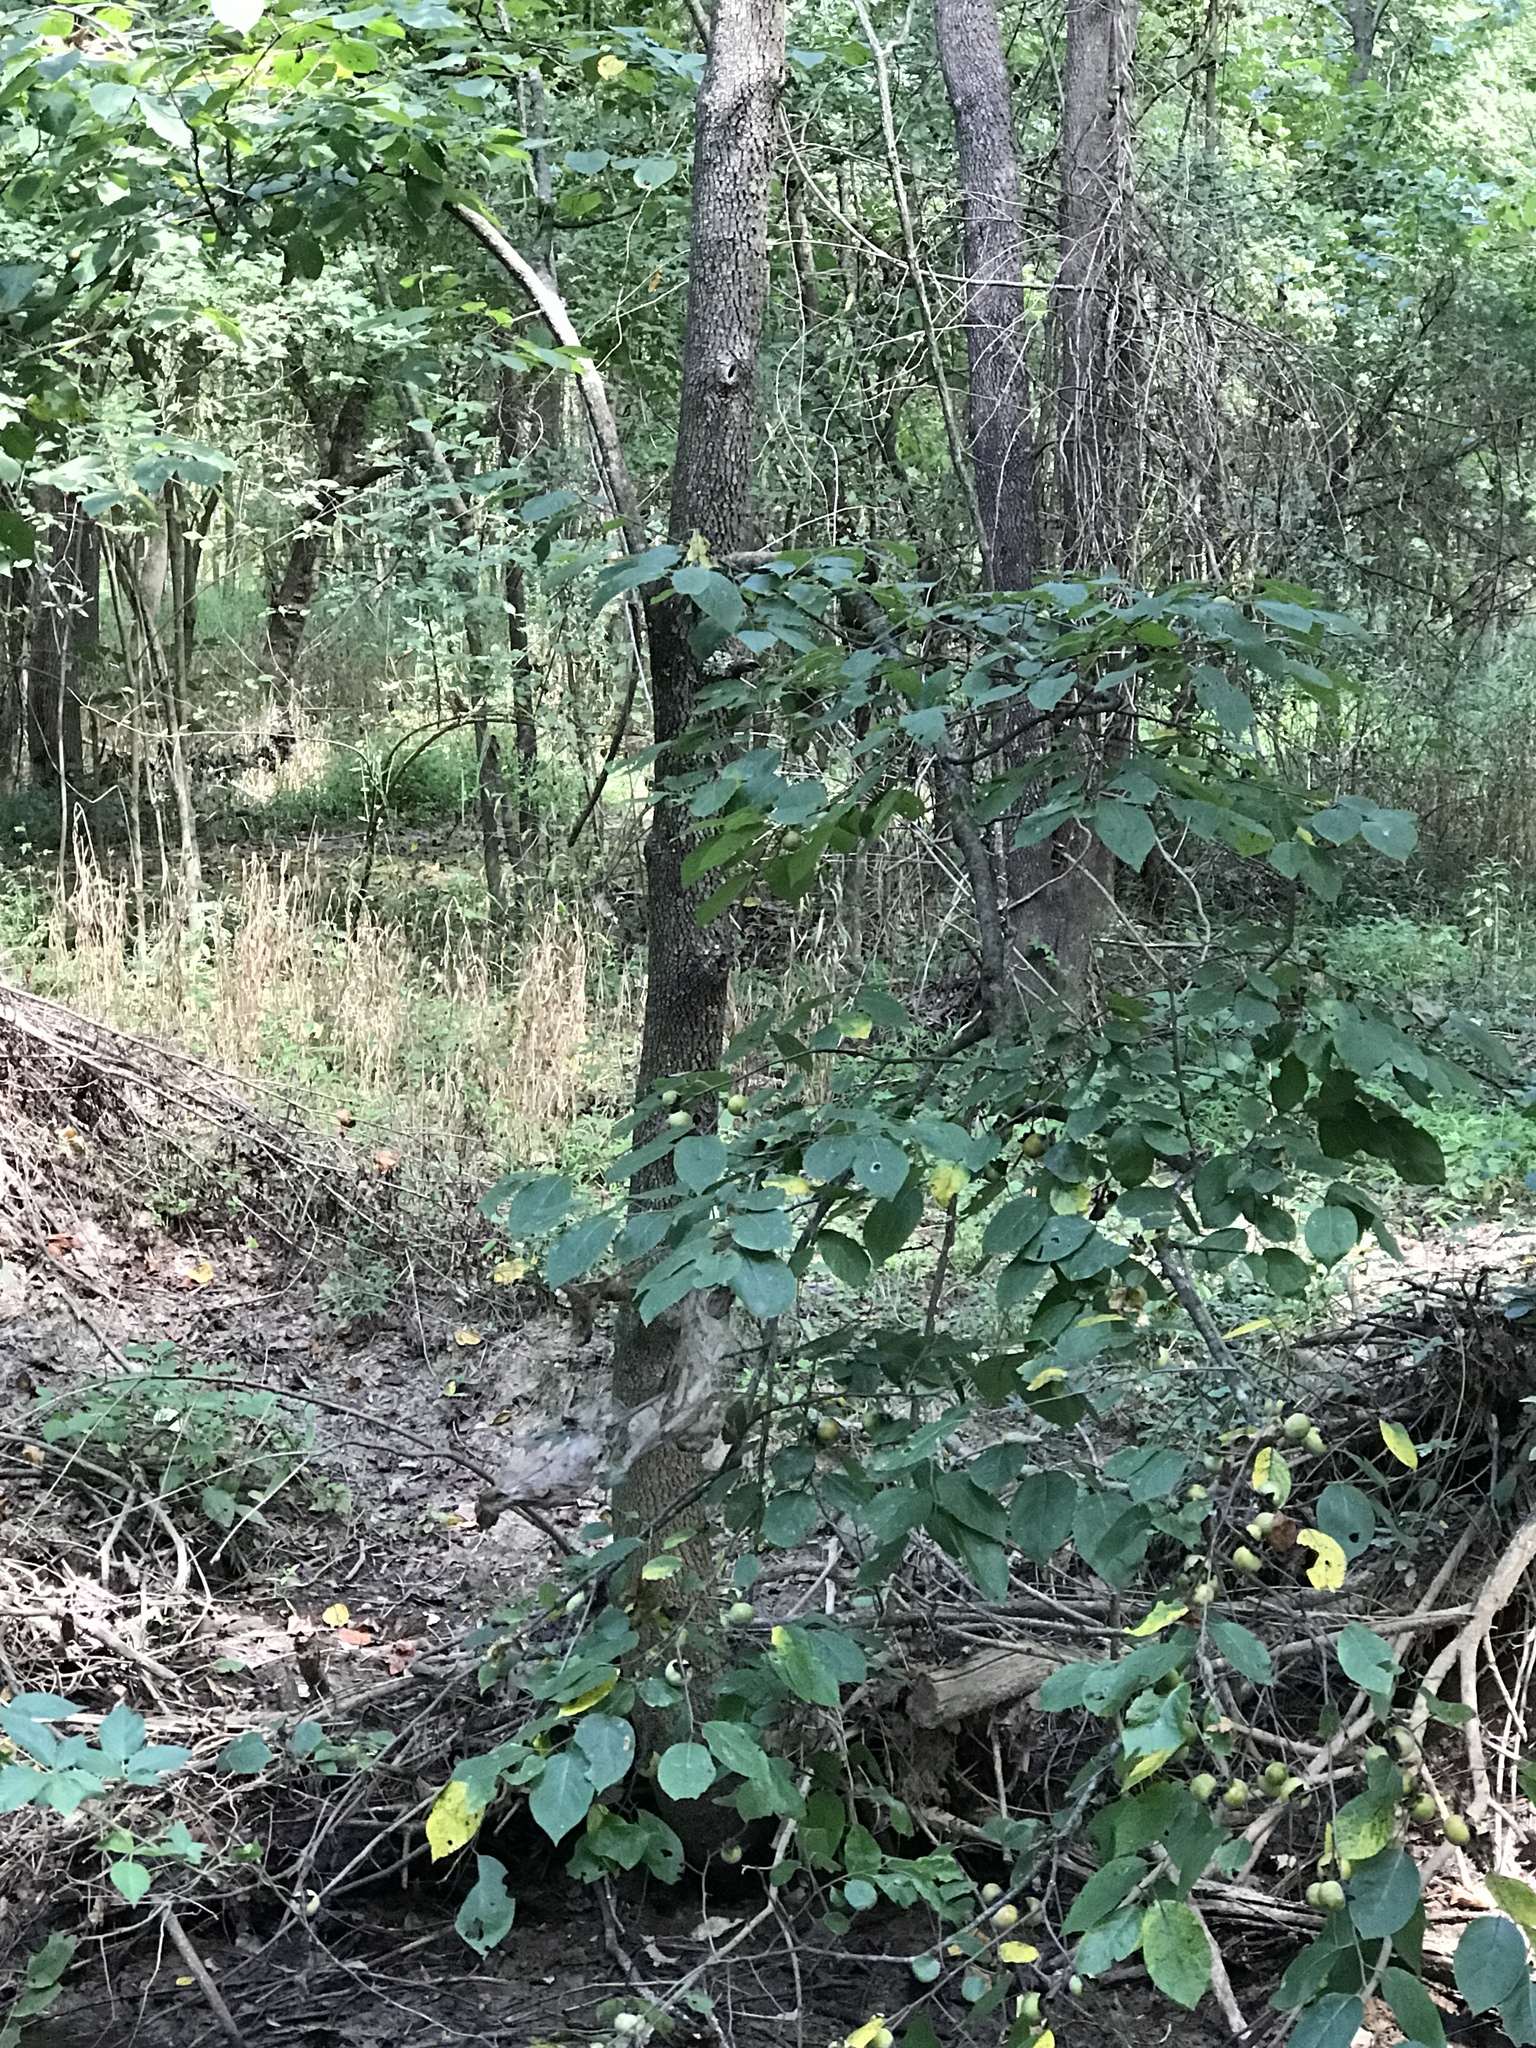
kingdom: Plantae
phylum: Tracheophyta
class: Magnoliopsida
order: Ericales
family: Ebenaceae
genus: Diospyros
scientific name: Diospyros virginiana
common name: Persimmon
